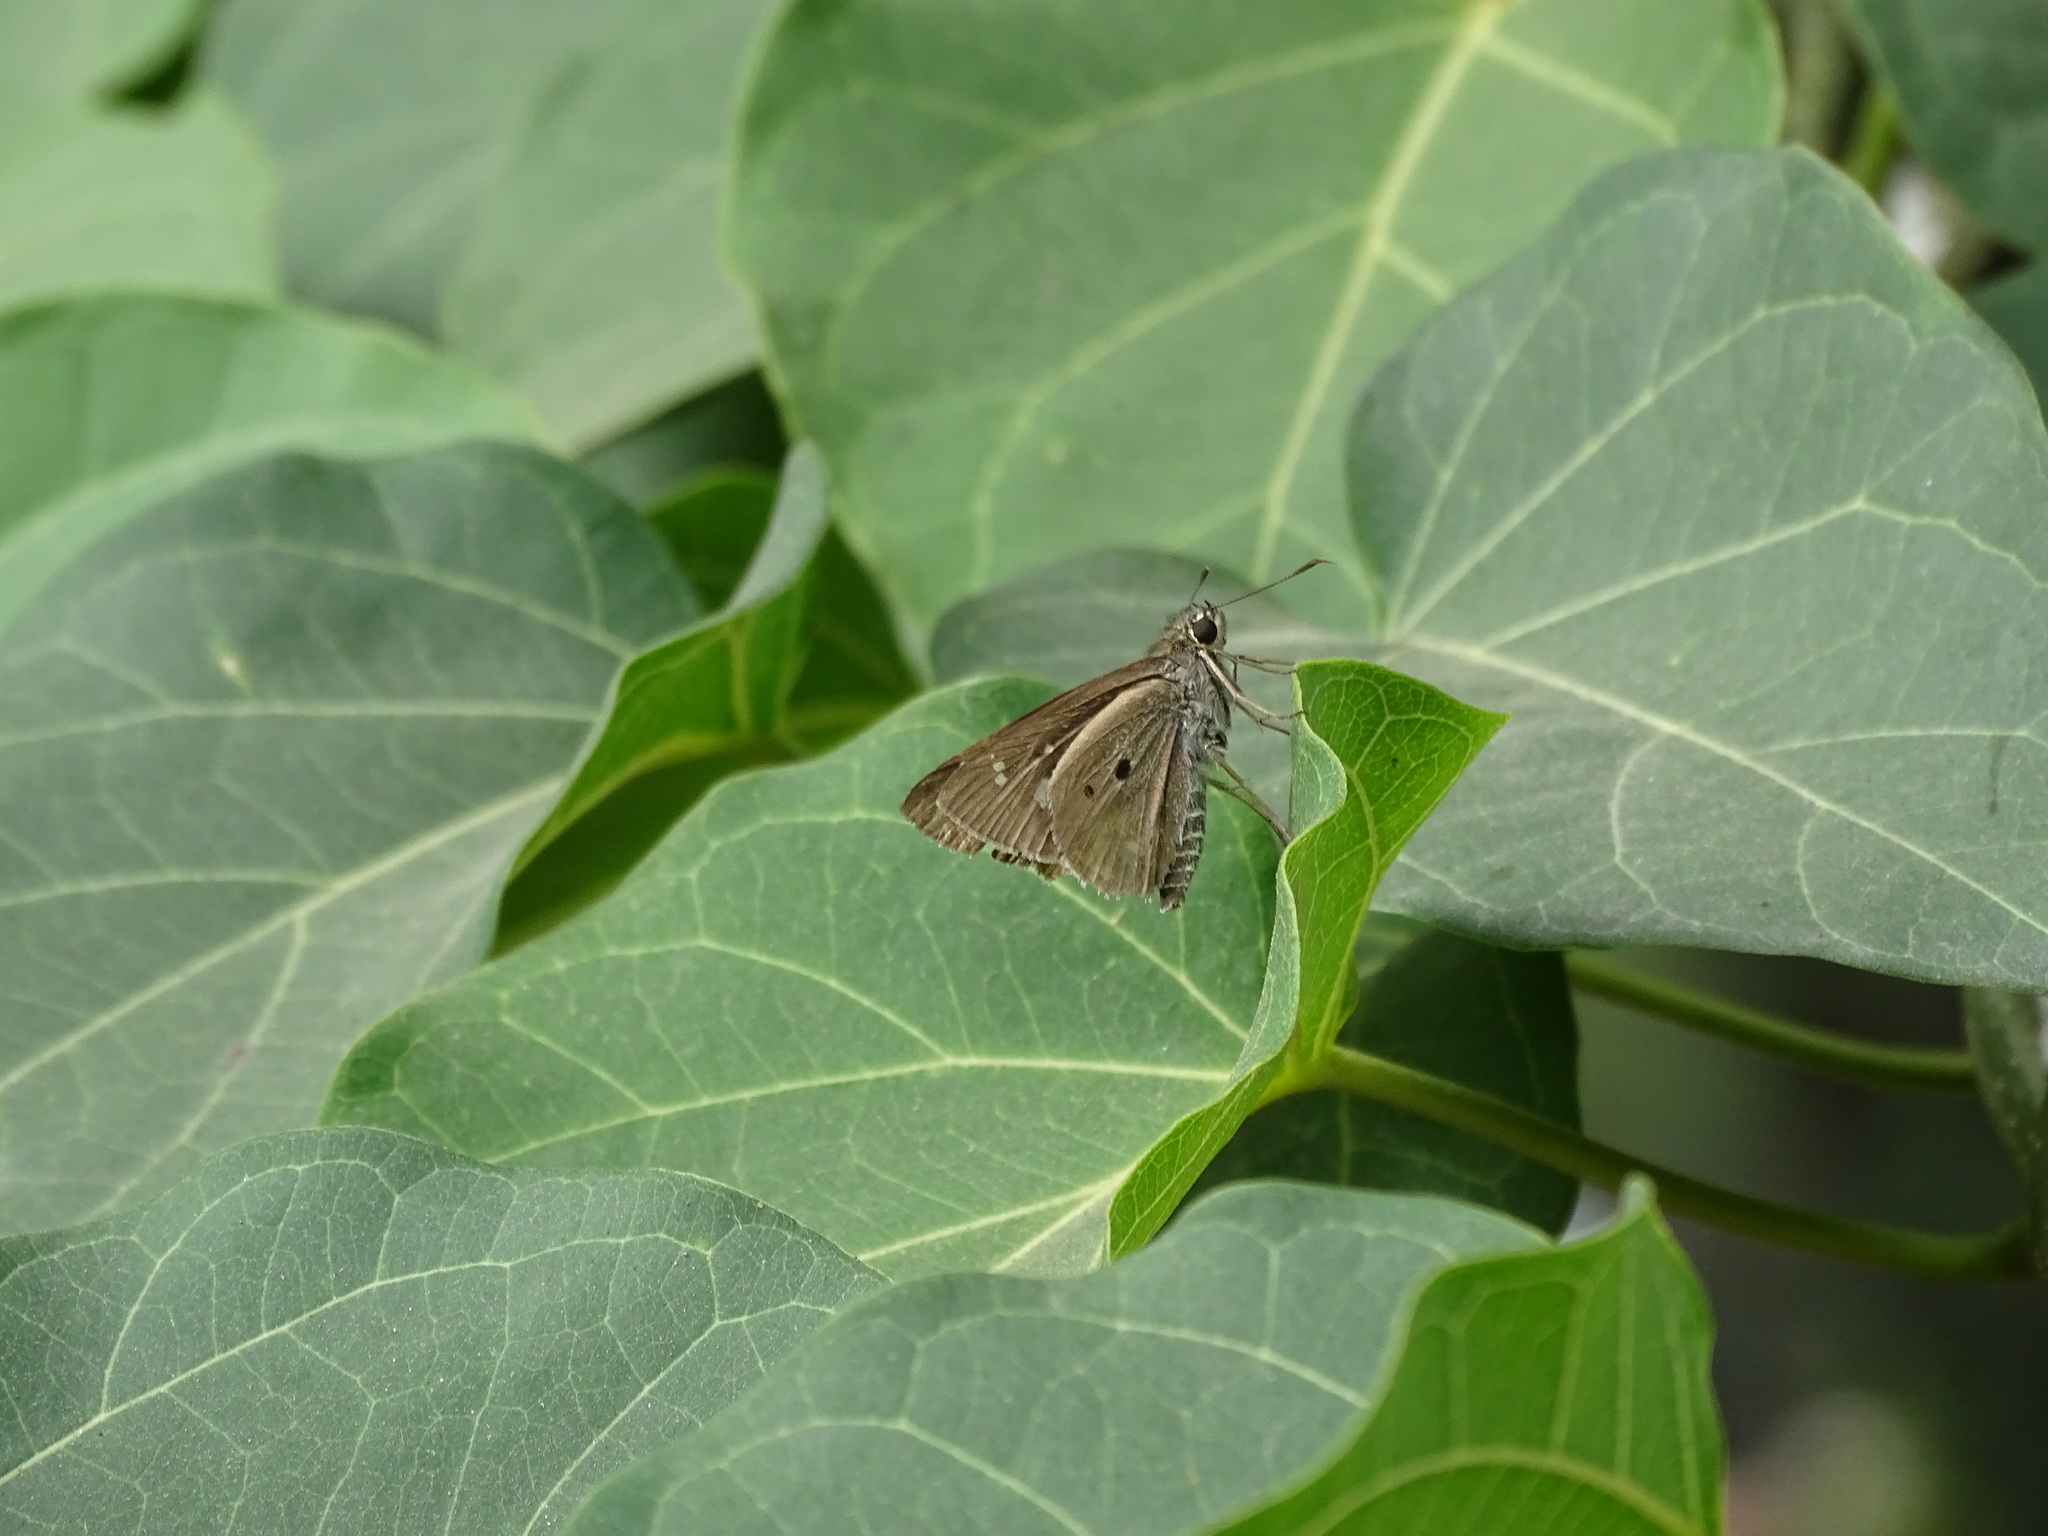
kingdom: Animalia
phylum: Arthropoda
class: Insecta
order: Lepidoptera
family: Hesperiidae
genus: Suastus
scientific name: Suastus gremius
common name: Indian palm bob
